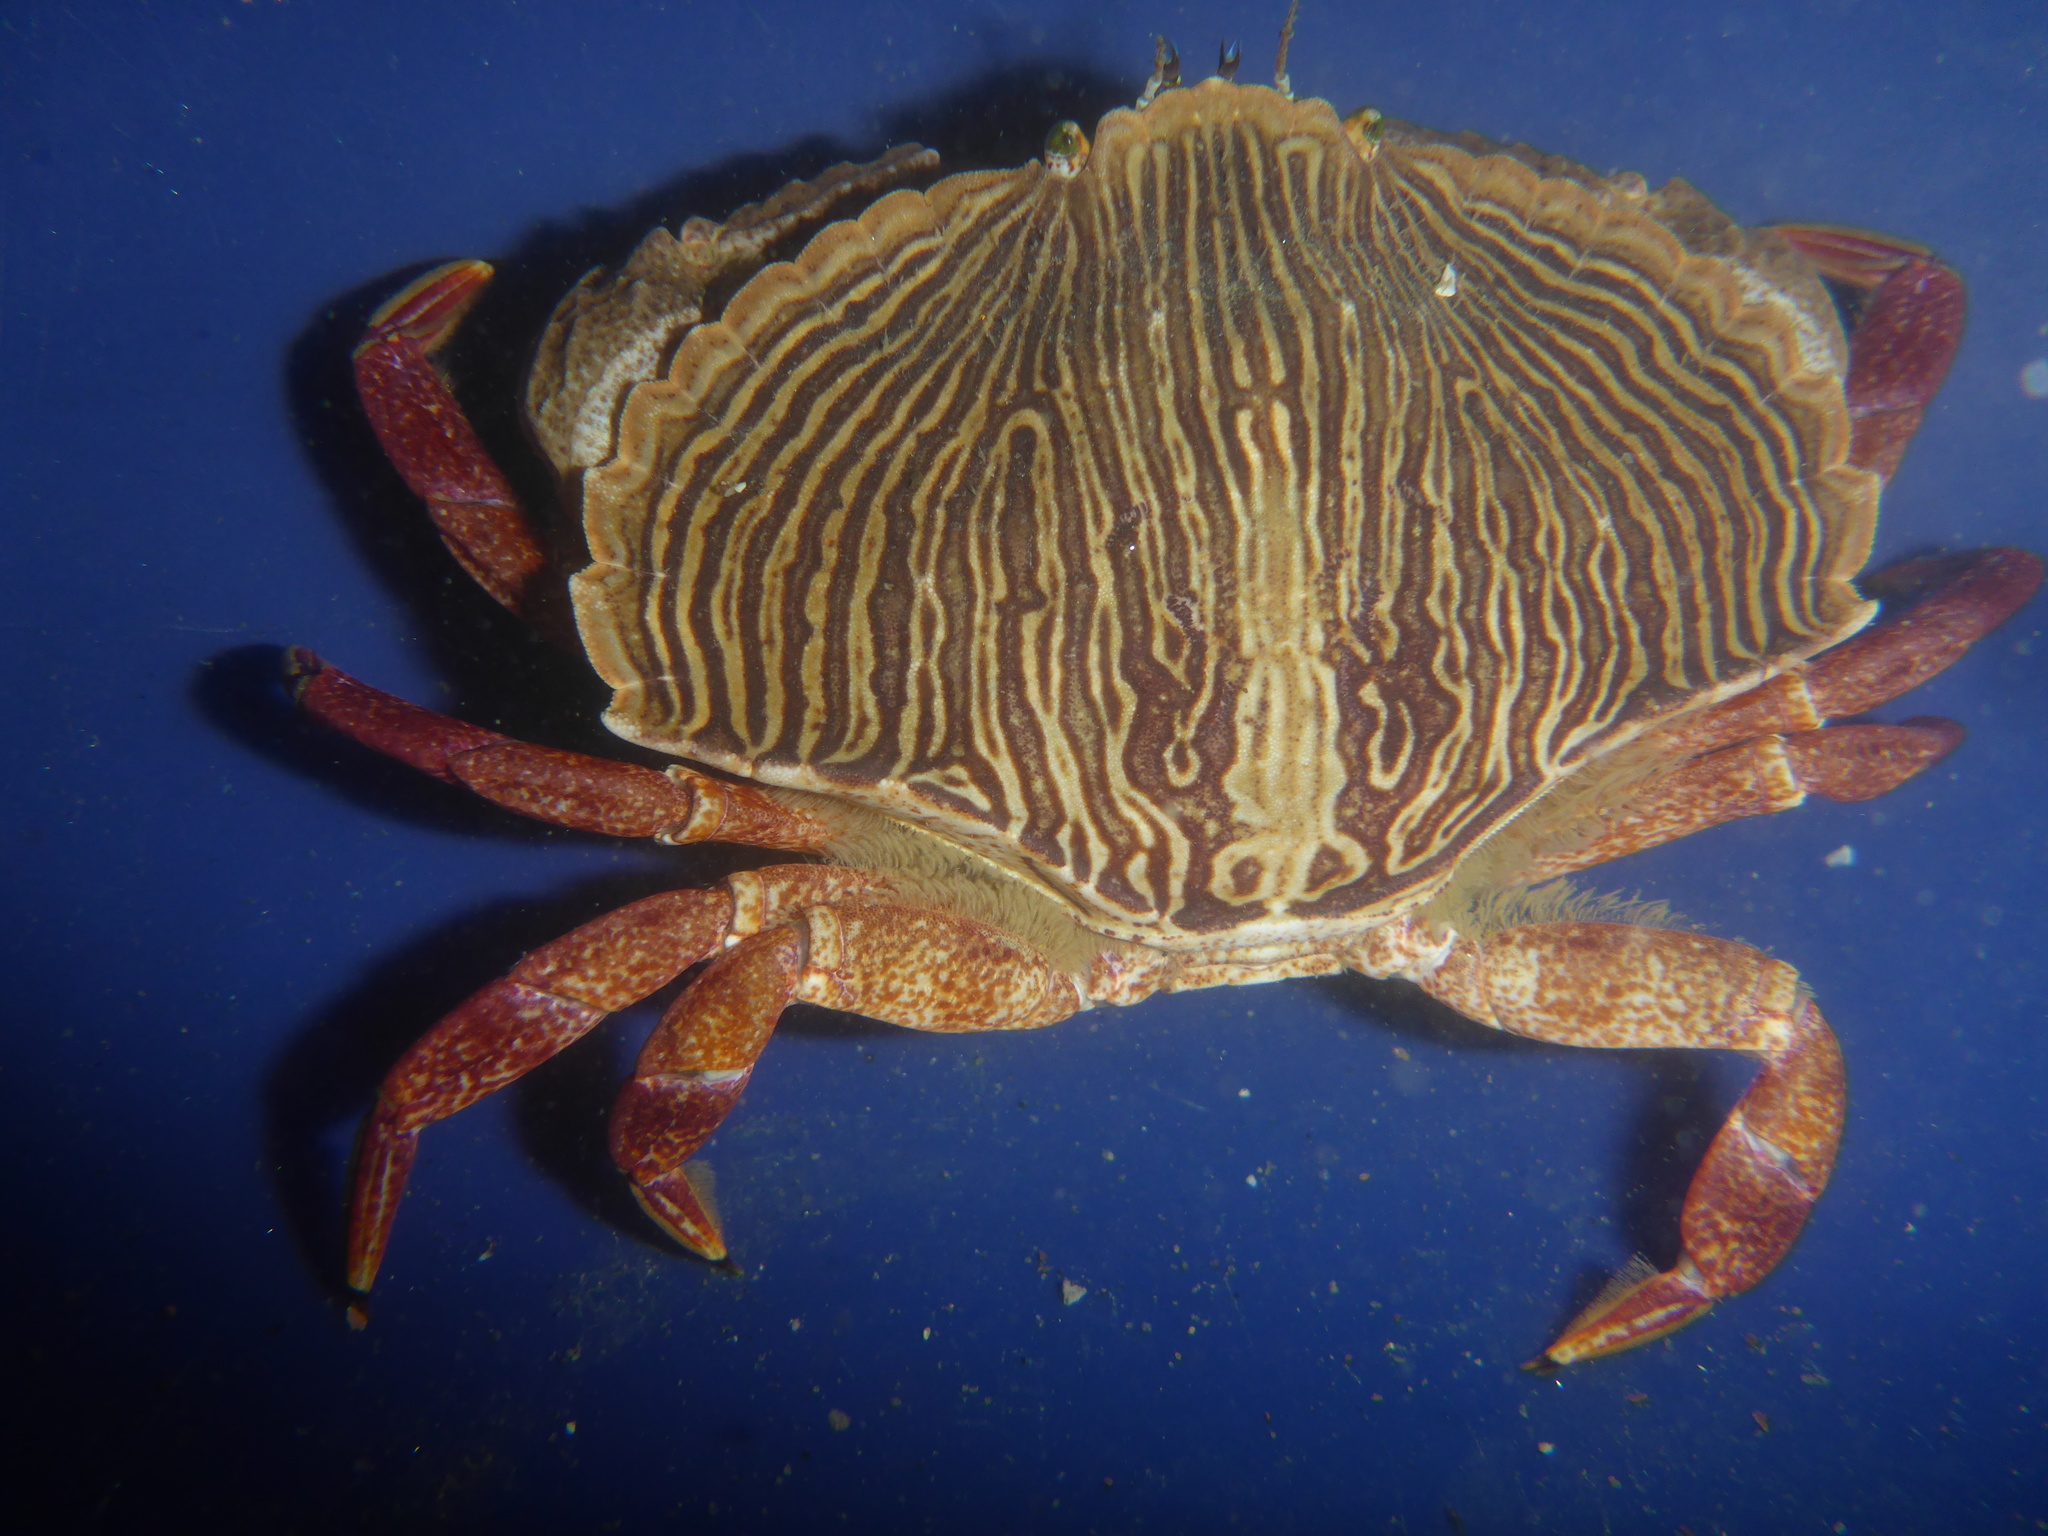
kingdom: Animalia
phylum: Arthropoda
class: Malacostraca
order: Decapoda
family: Cancridae
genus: Cancer
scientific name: Cancer productus
